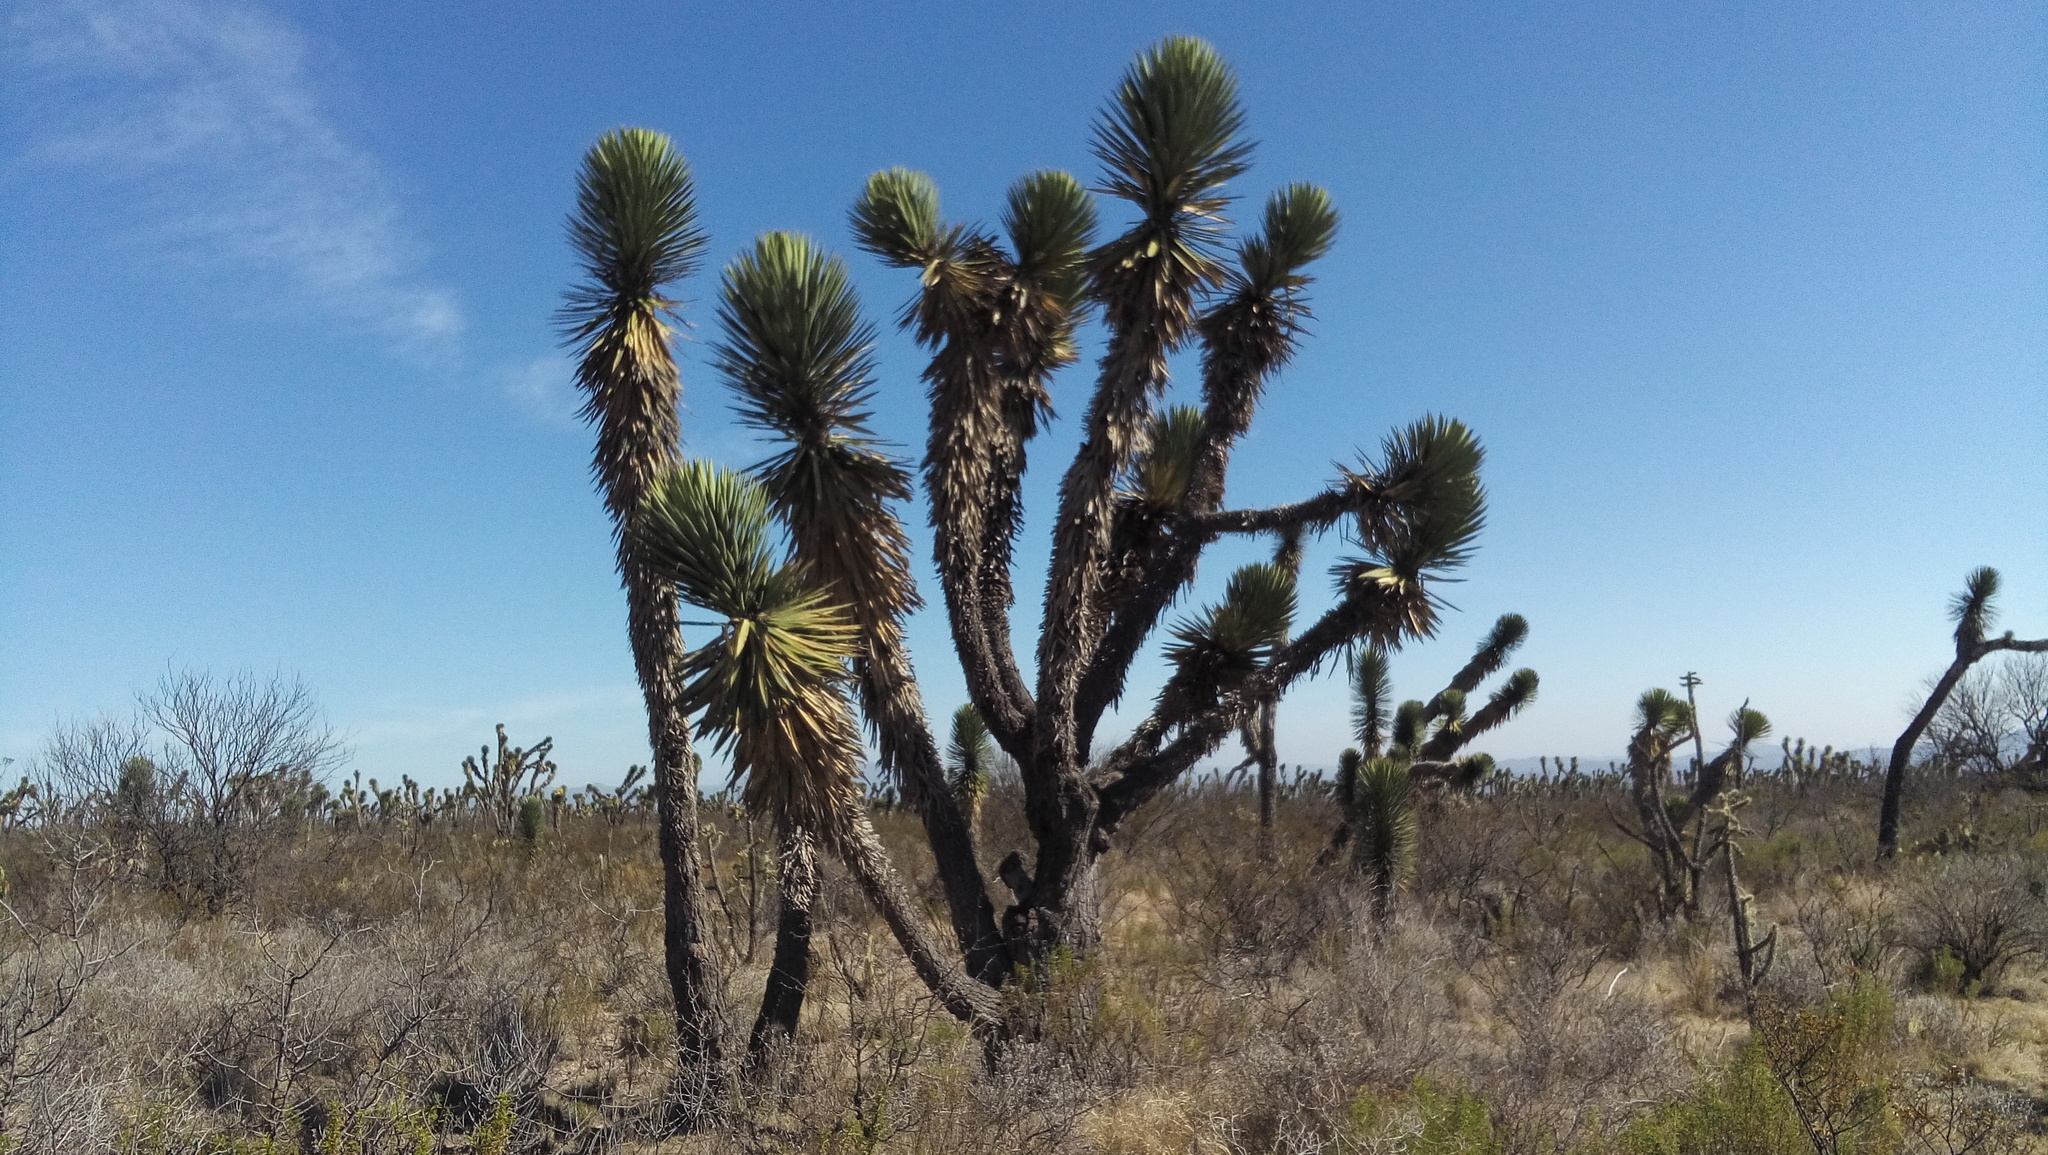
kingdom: Plantae
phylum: Tracheophyta
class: Liliopsida
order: Asparagales
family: Asparagaceae
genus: Yucca
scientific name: Yucca decipiens
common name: Chinese palm
